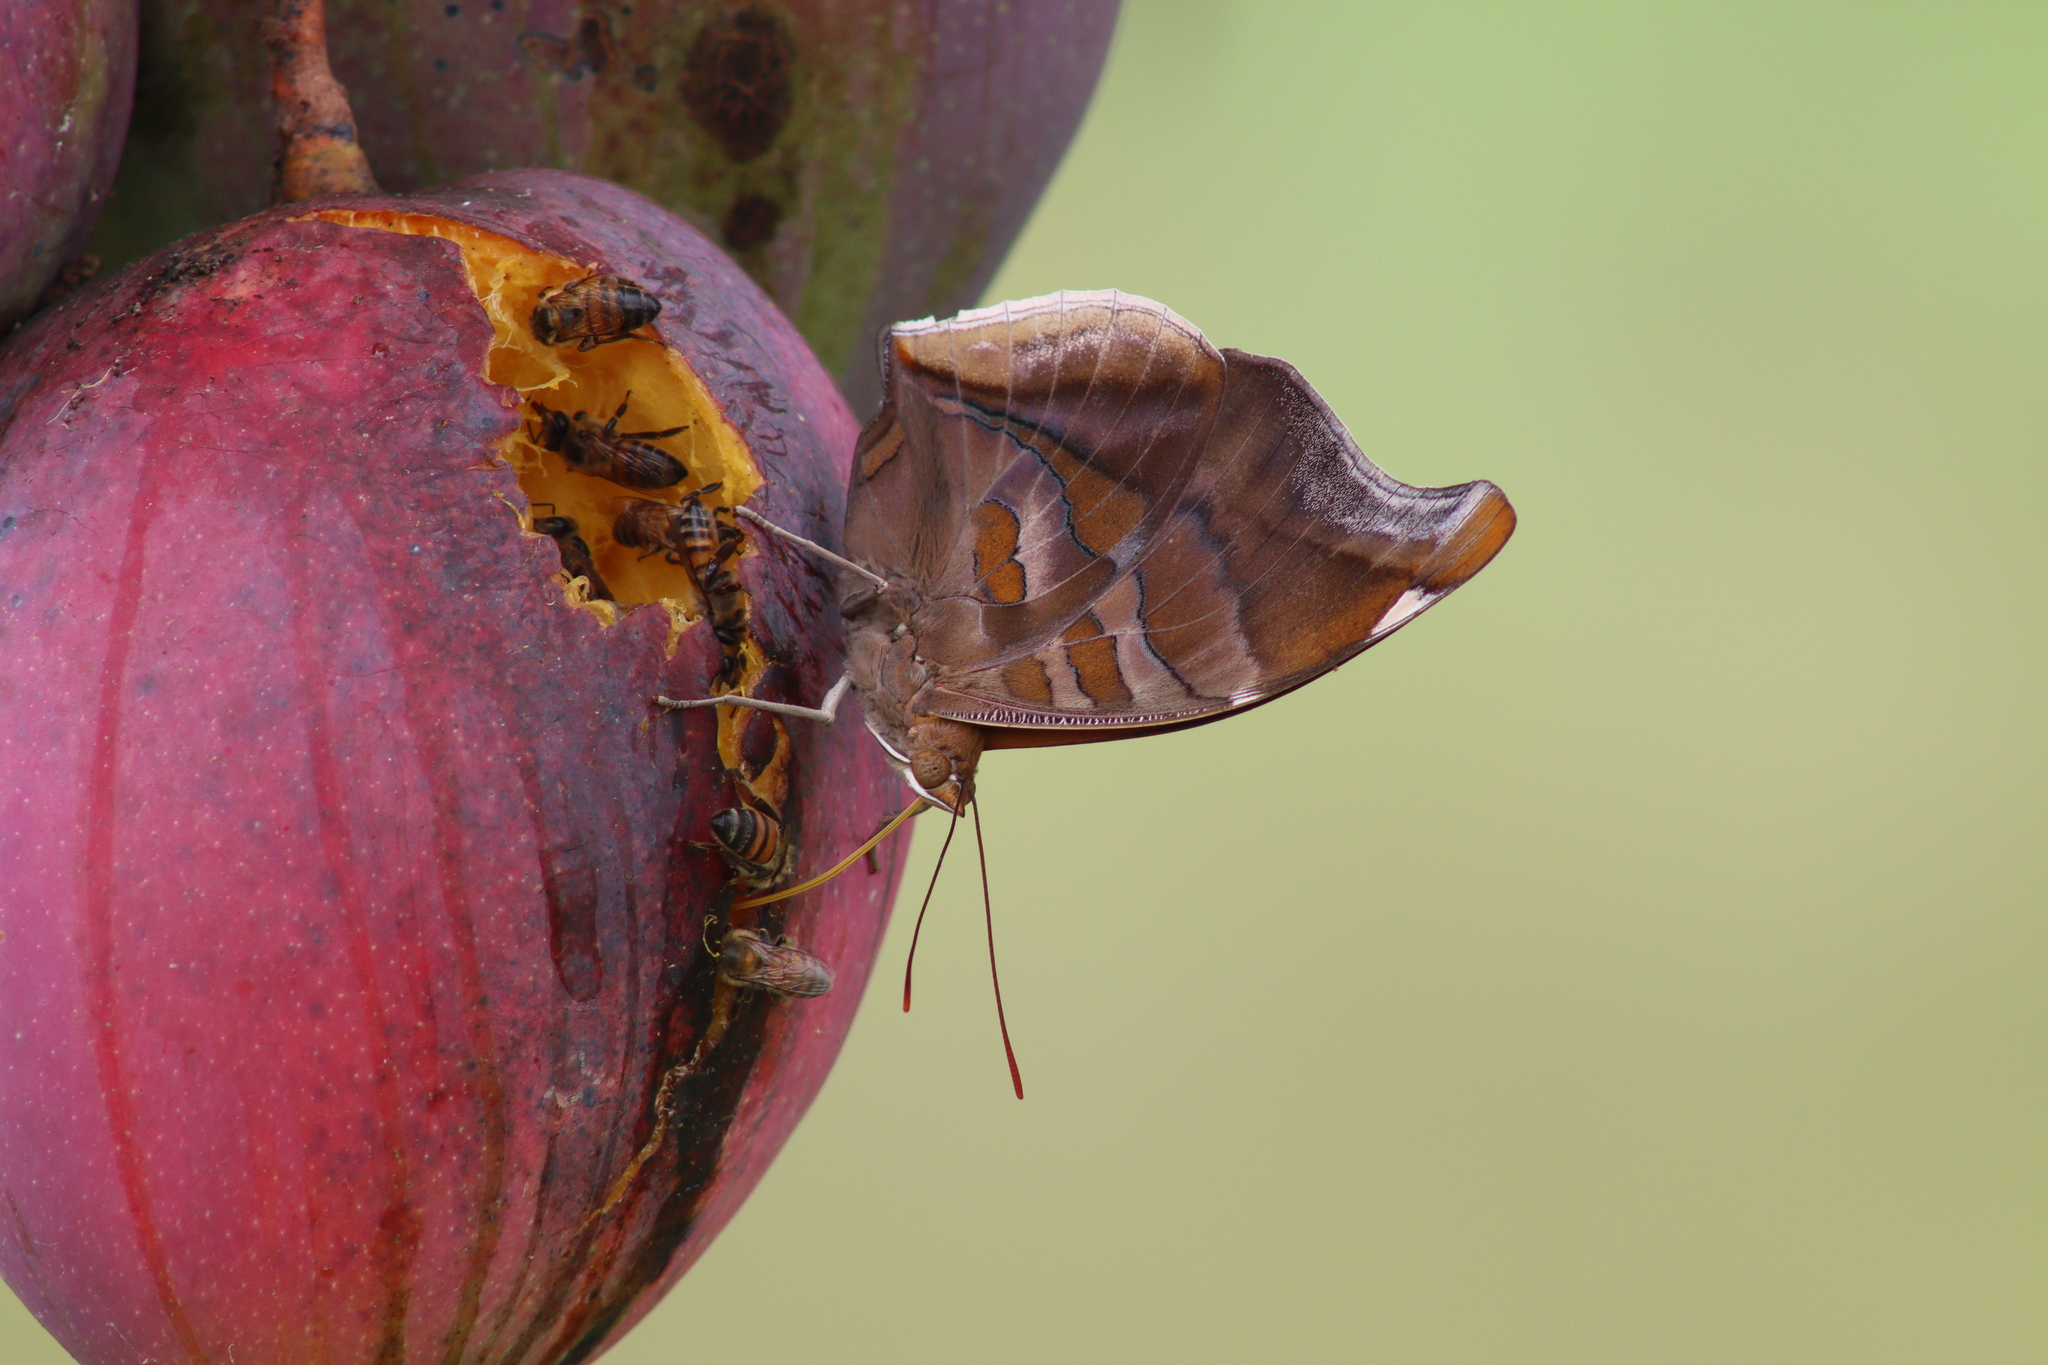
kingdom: Animalia
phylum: Arthropoda
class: Insecta
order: Hymenoptera
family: Apidae
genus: Apis
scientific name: Apis mellifera
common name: Honey bee
